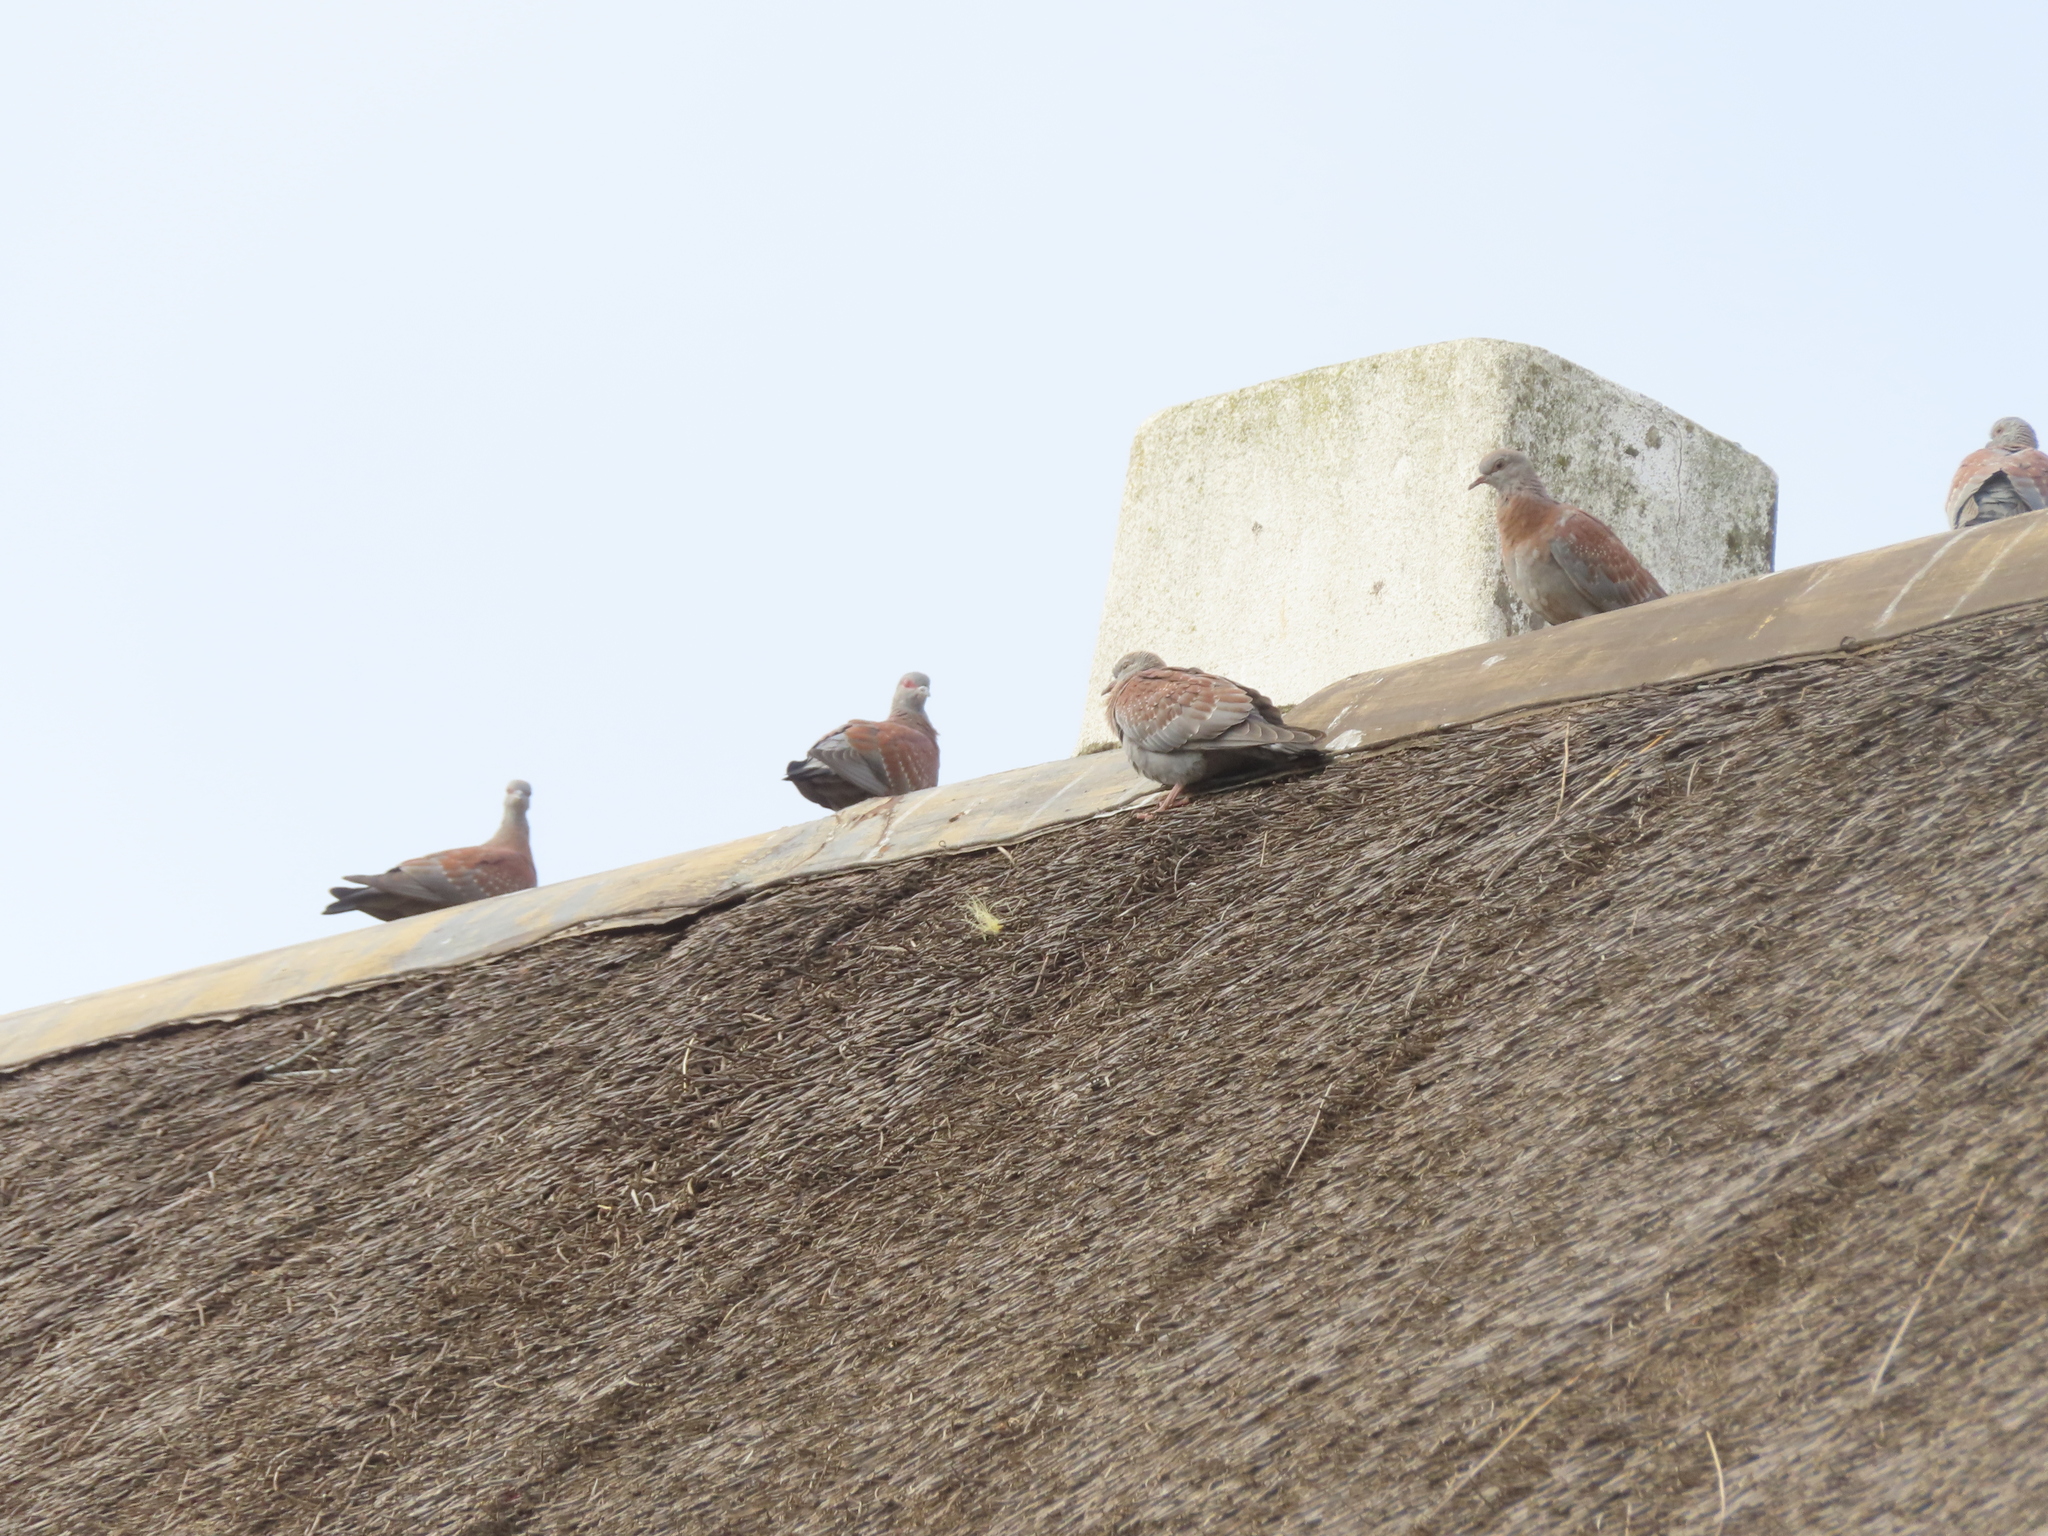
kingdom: Animalia
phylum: Chordata
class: Aves
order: Columbiformes
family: Columbidae
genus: Columba
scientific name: Columba guinea
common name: Speckled pigeon
